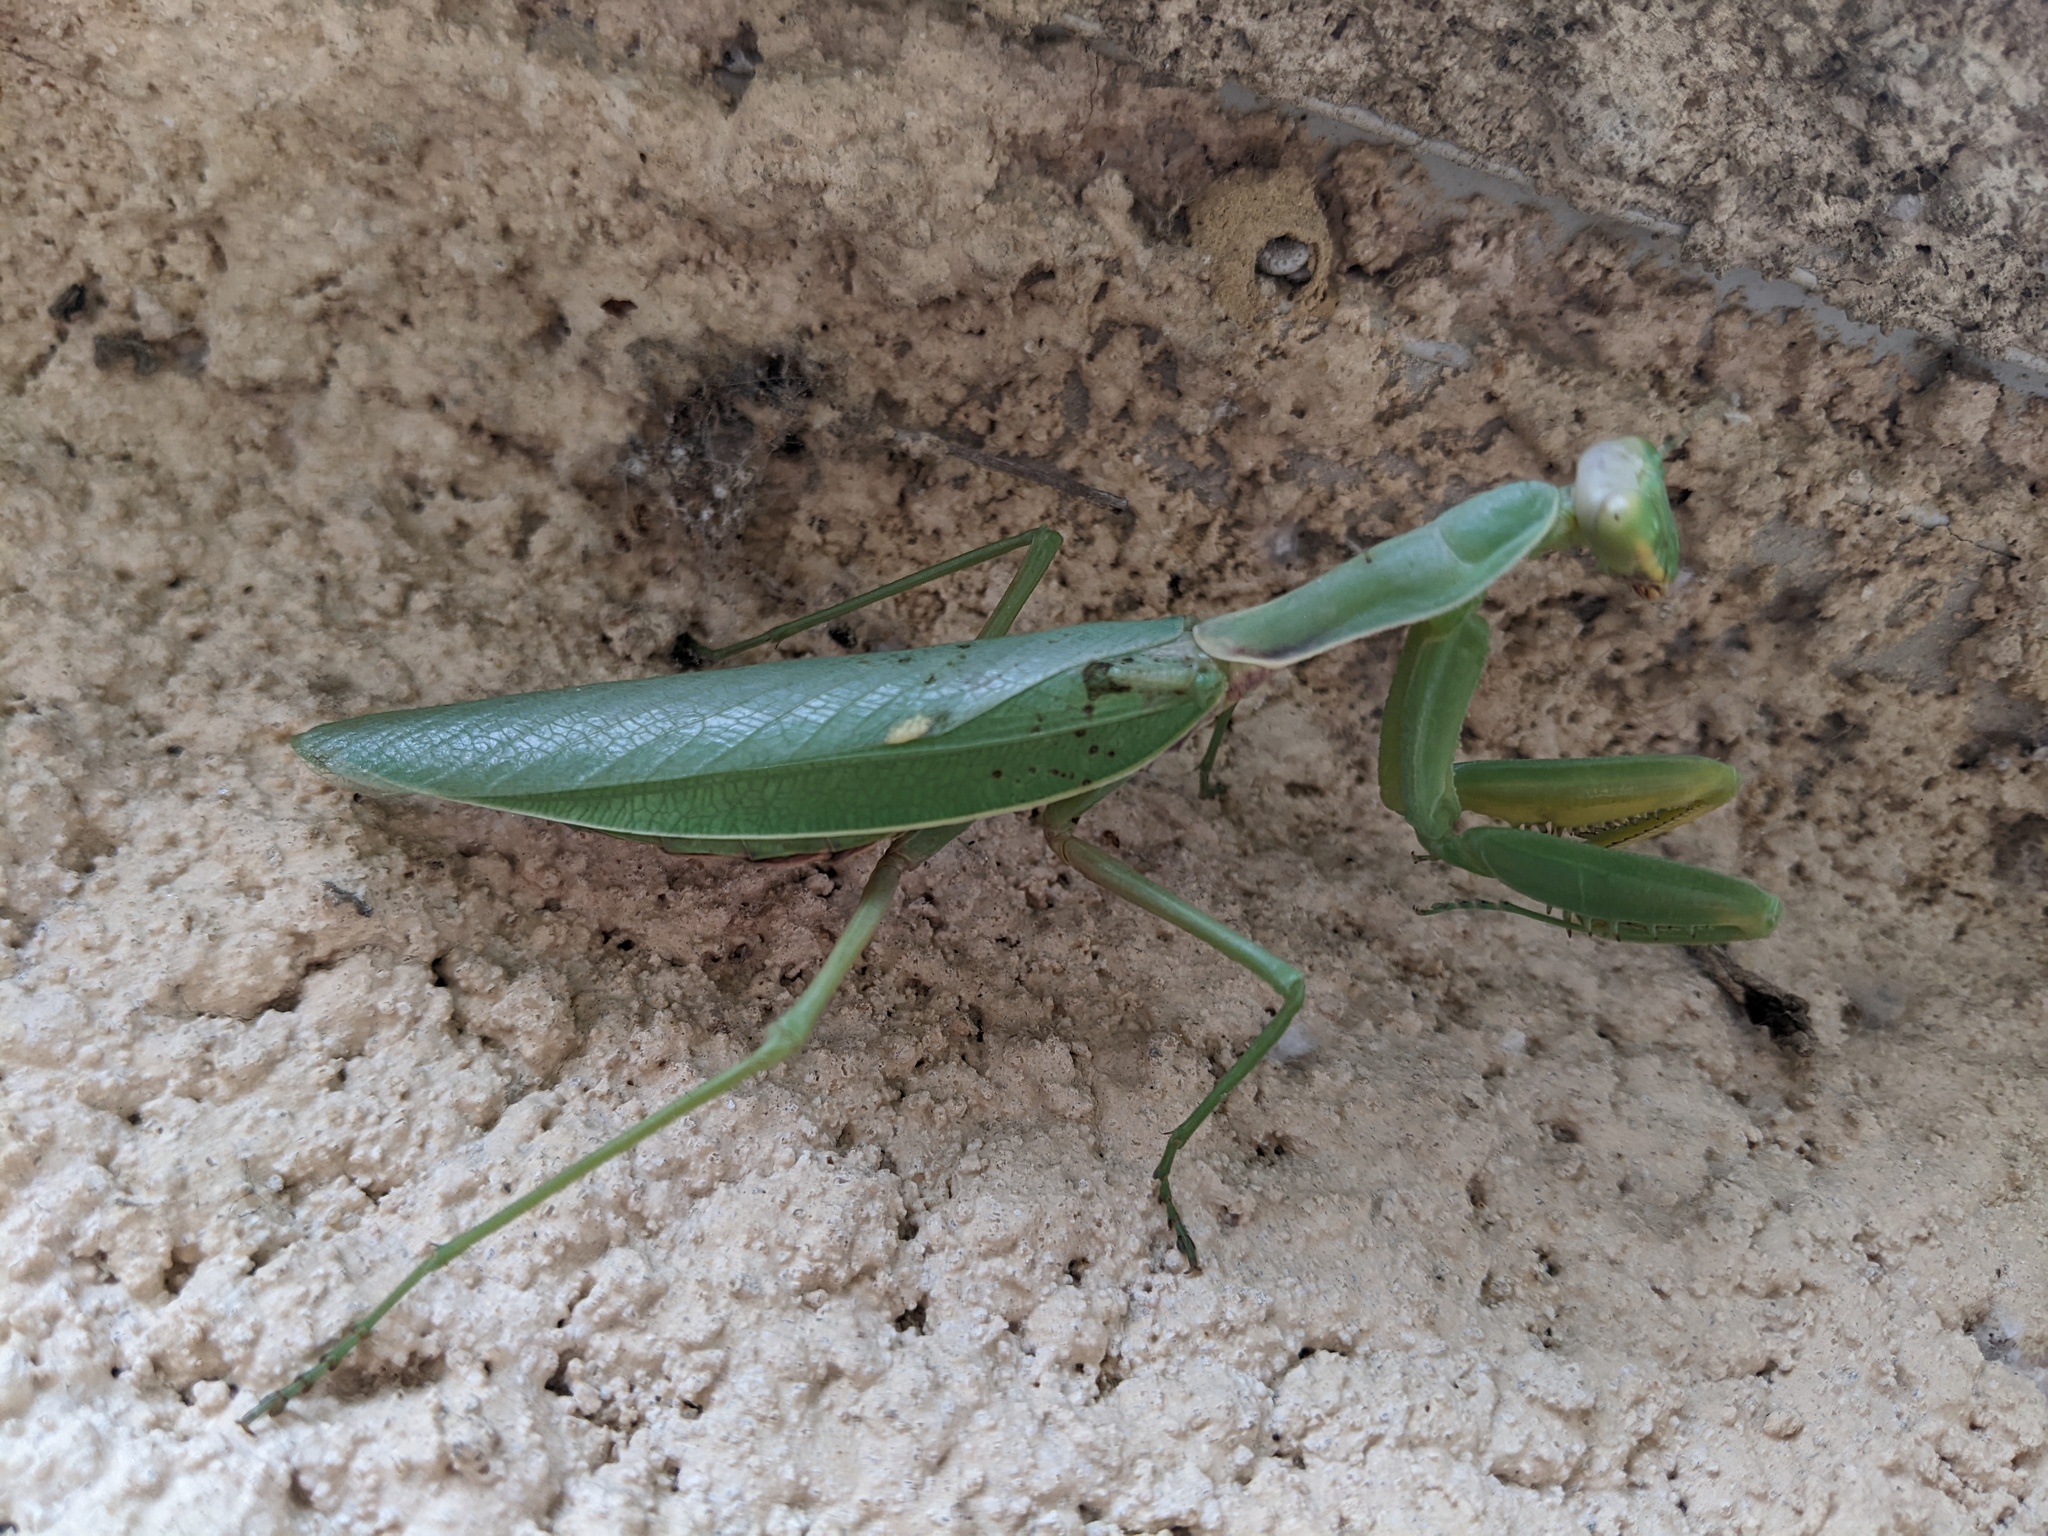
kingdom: Animalia
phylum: Arthropoda
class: Insecta
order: Mantodea
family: Mantidae
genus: Hierodula
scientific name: Hierodula transcaucasica
